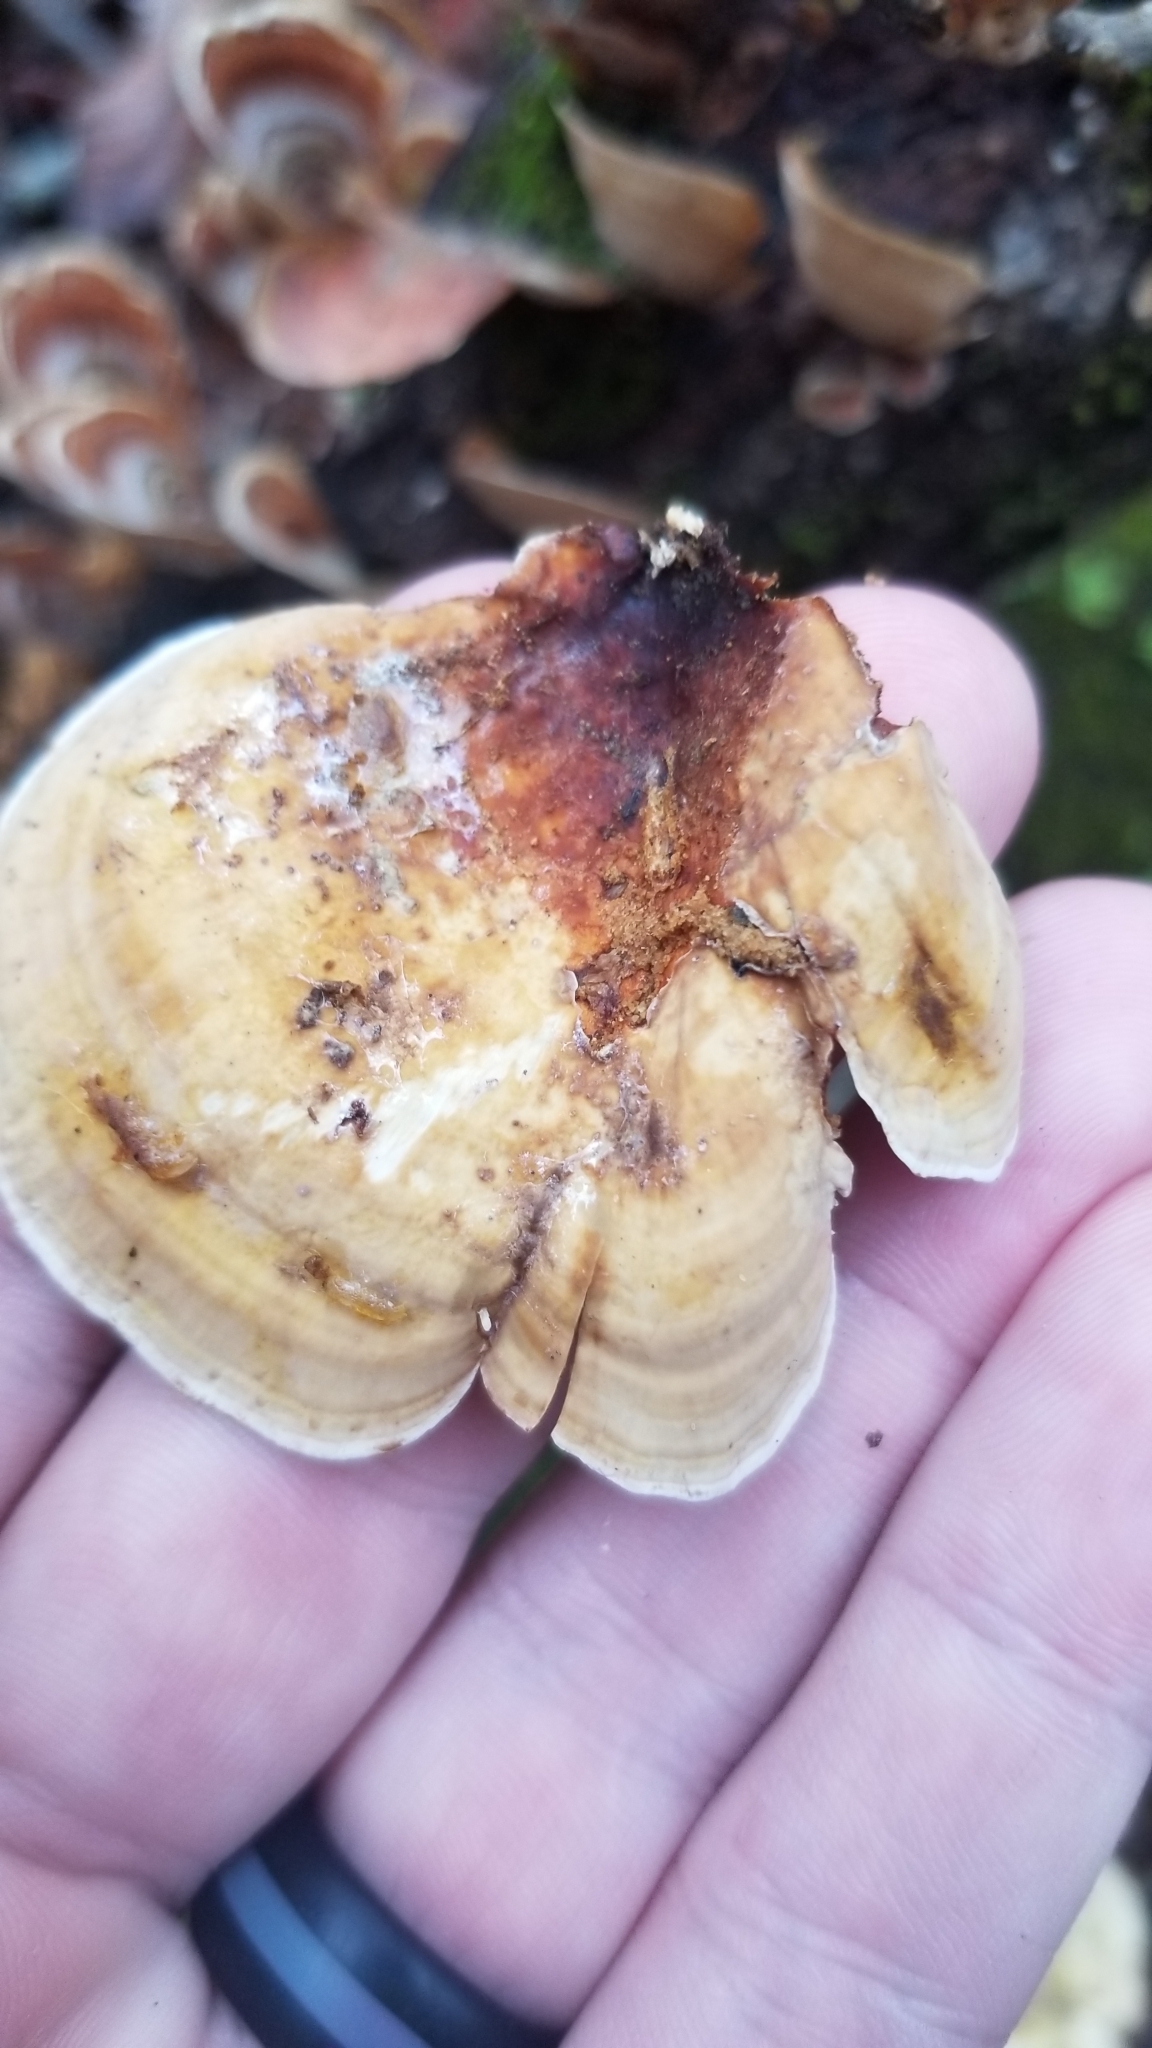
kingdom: Fungi
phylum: Basidiomycota
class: Agaricomycetes
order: Russulales
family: Stereaceae
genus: Stereum
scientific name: Stereum lobatum
